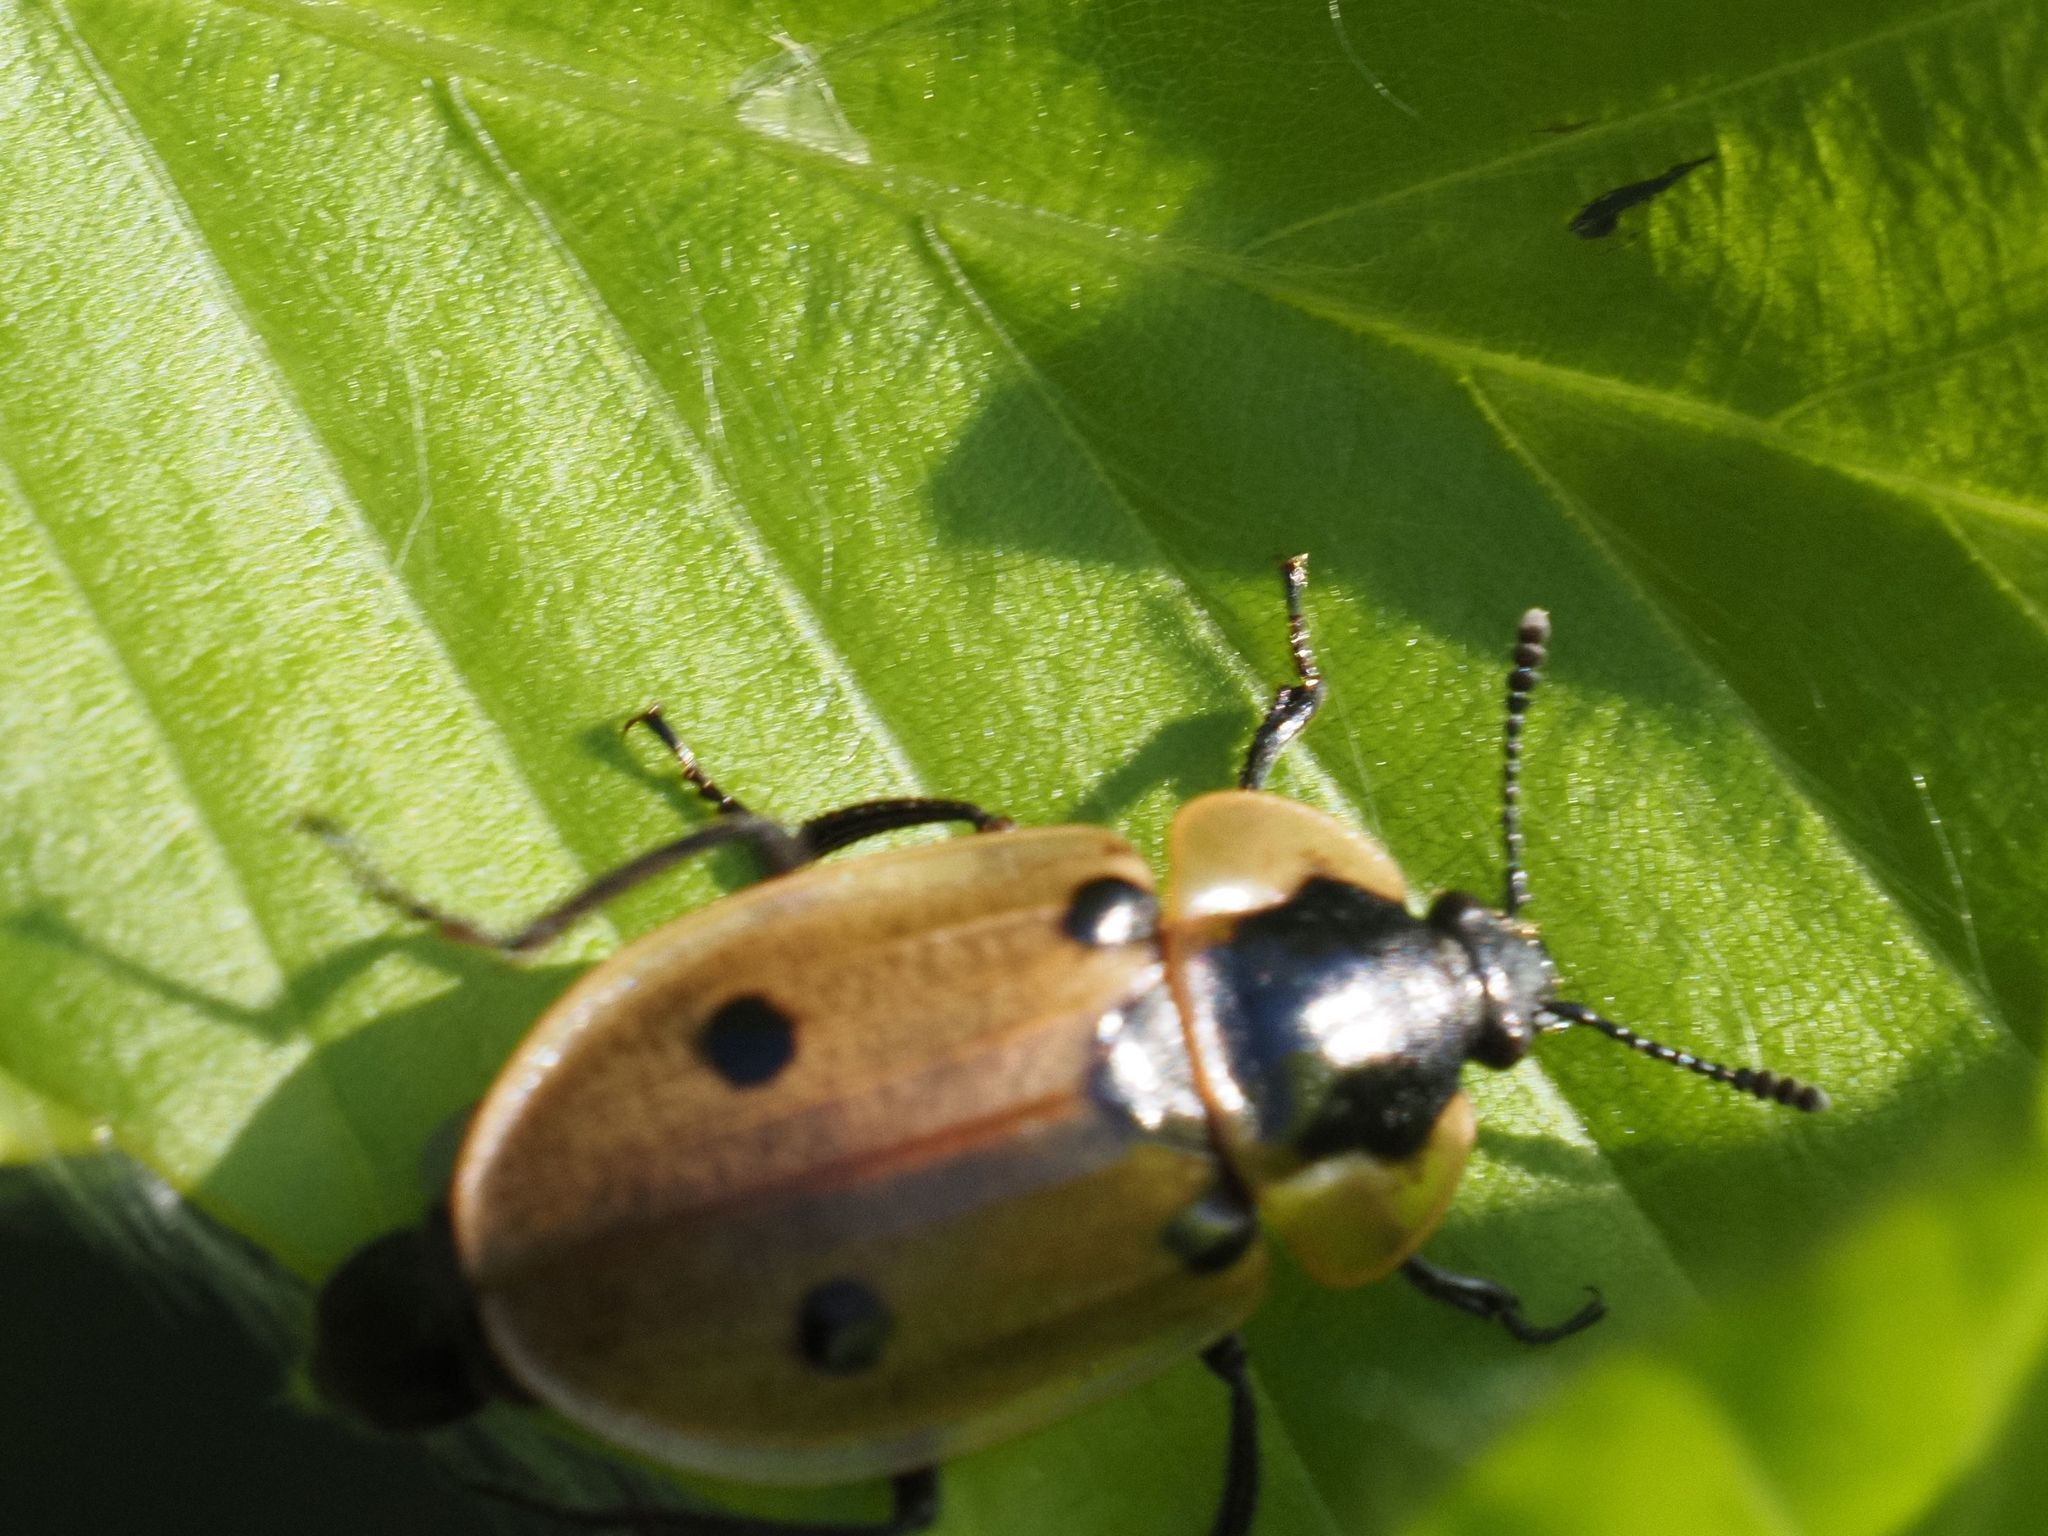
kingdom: Animalia
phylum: Arthropoda
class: Insecta
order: Coleoptera
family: Staphylinidae
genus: Dendroxena
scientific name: Dendroxena quadrimaculata
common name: Carrion beetle
